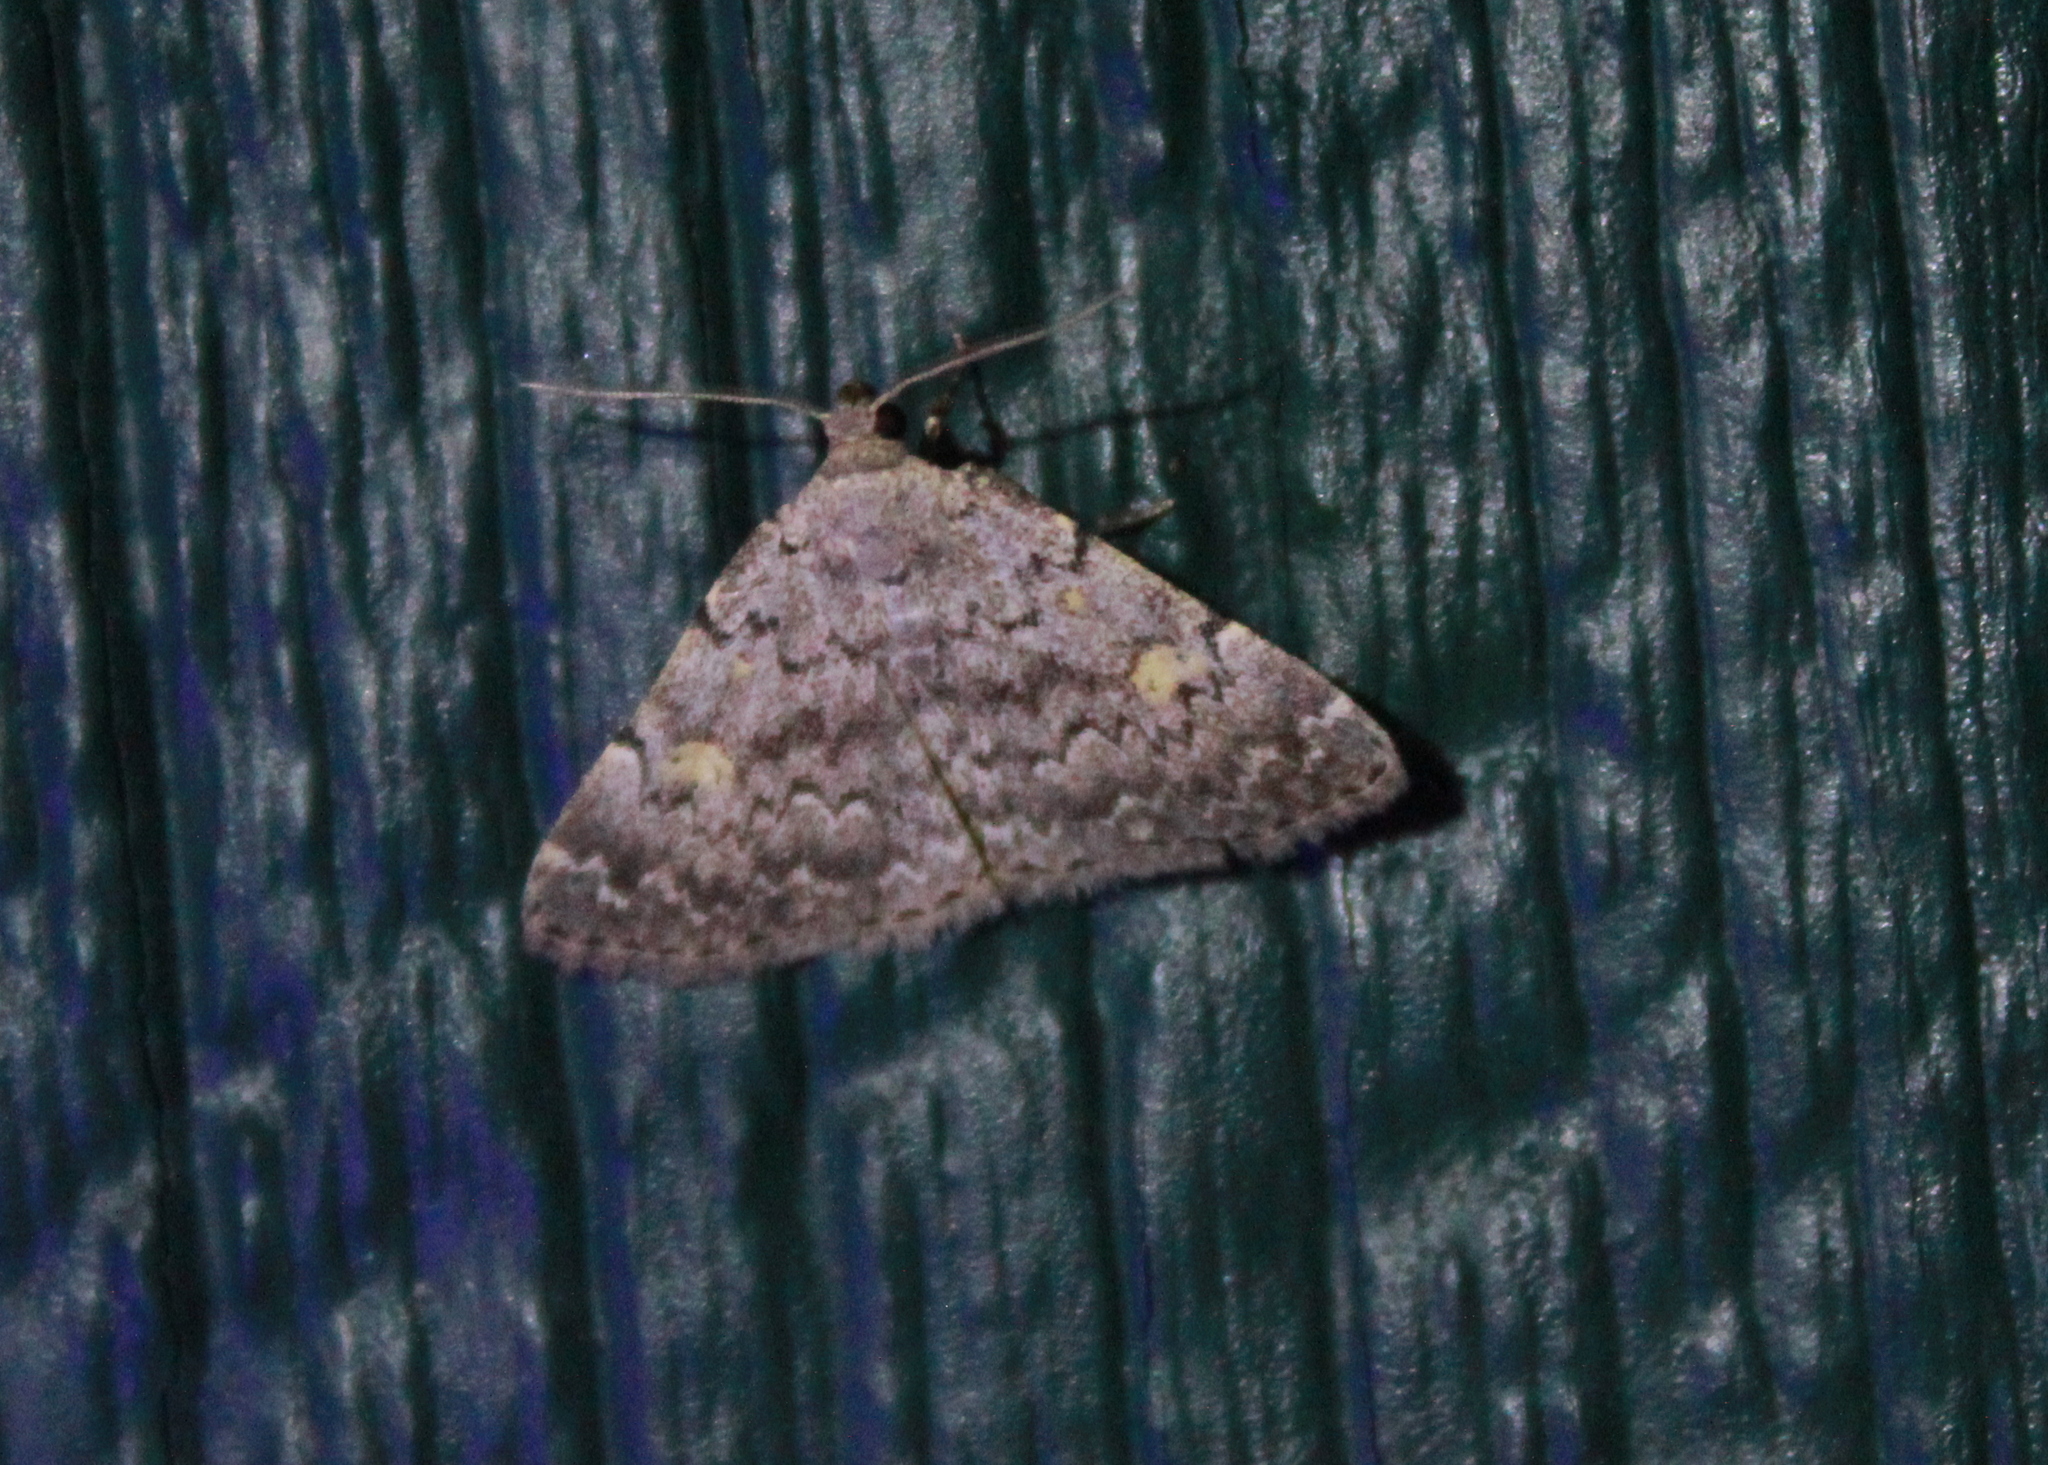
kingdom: Animalia
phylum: Arthropoda
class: Insecta
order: Lepidoptera
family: Erebidae
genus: Idia
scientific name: Idia aemula
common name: Common idia moth
